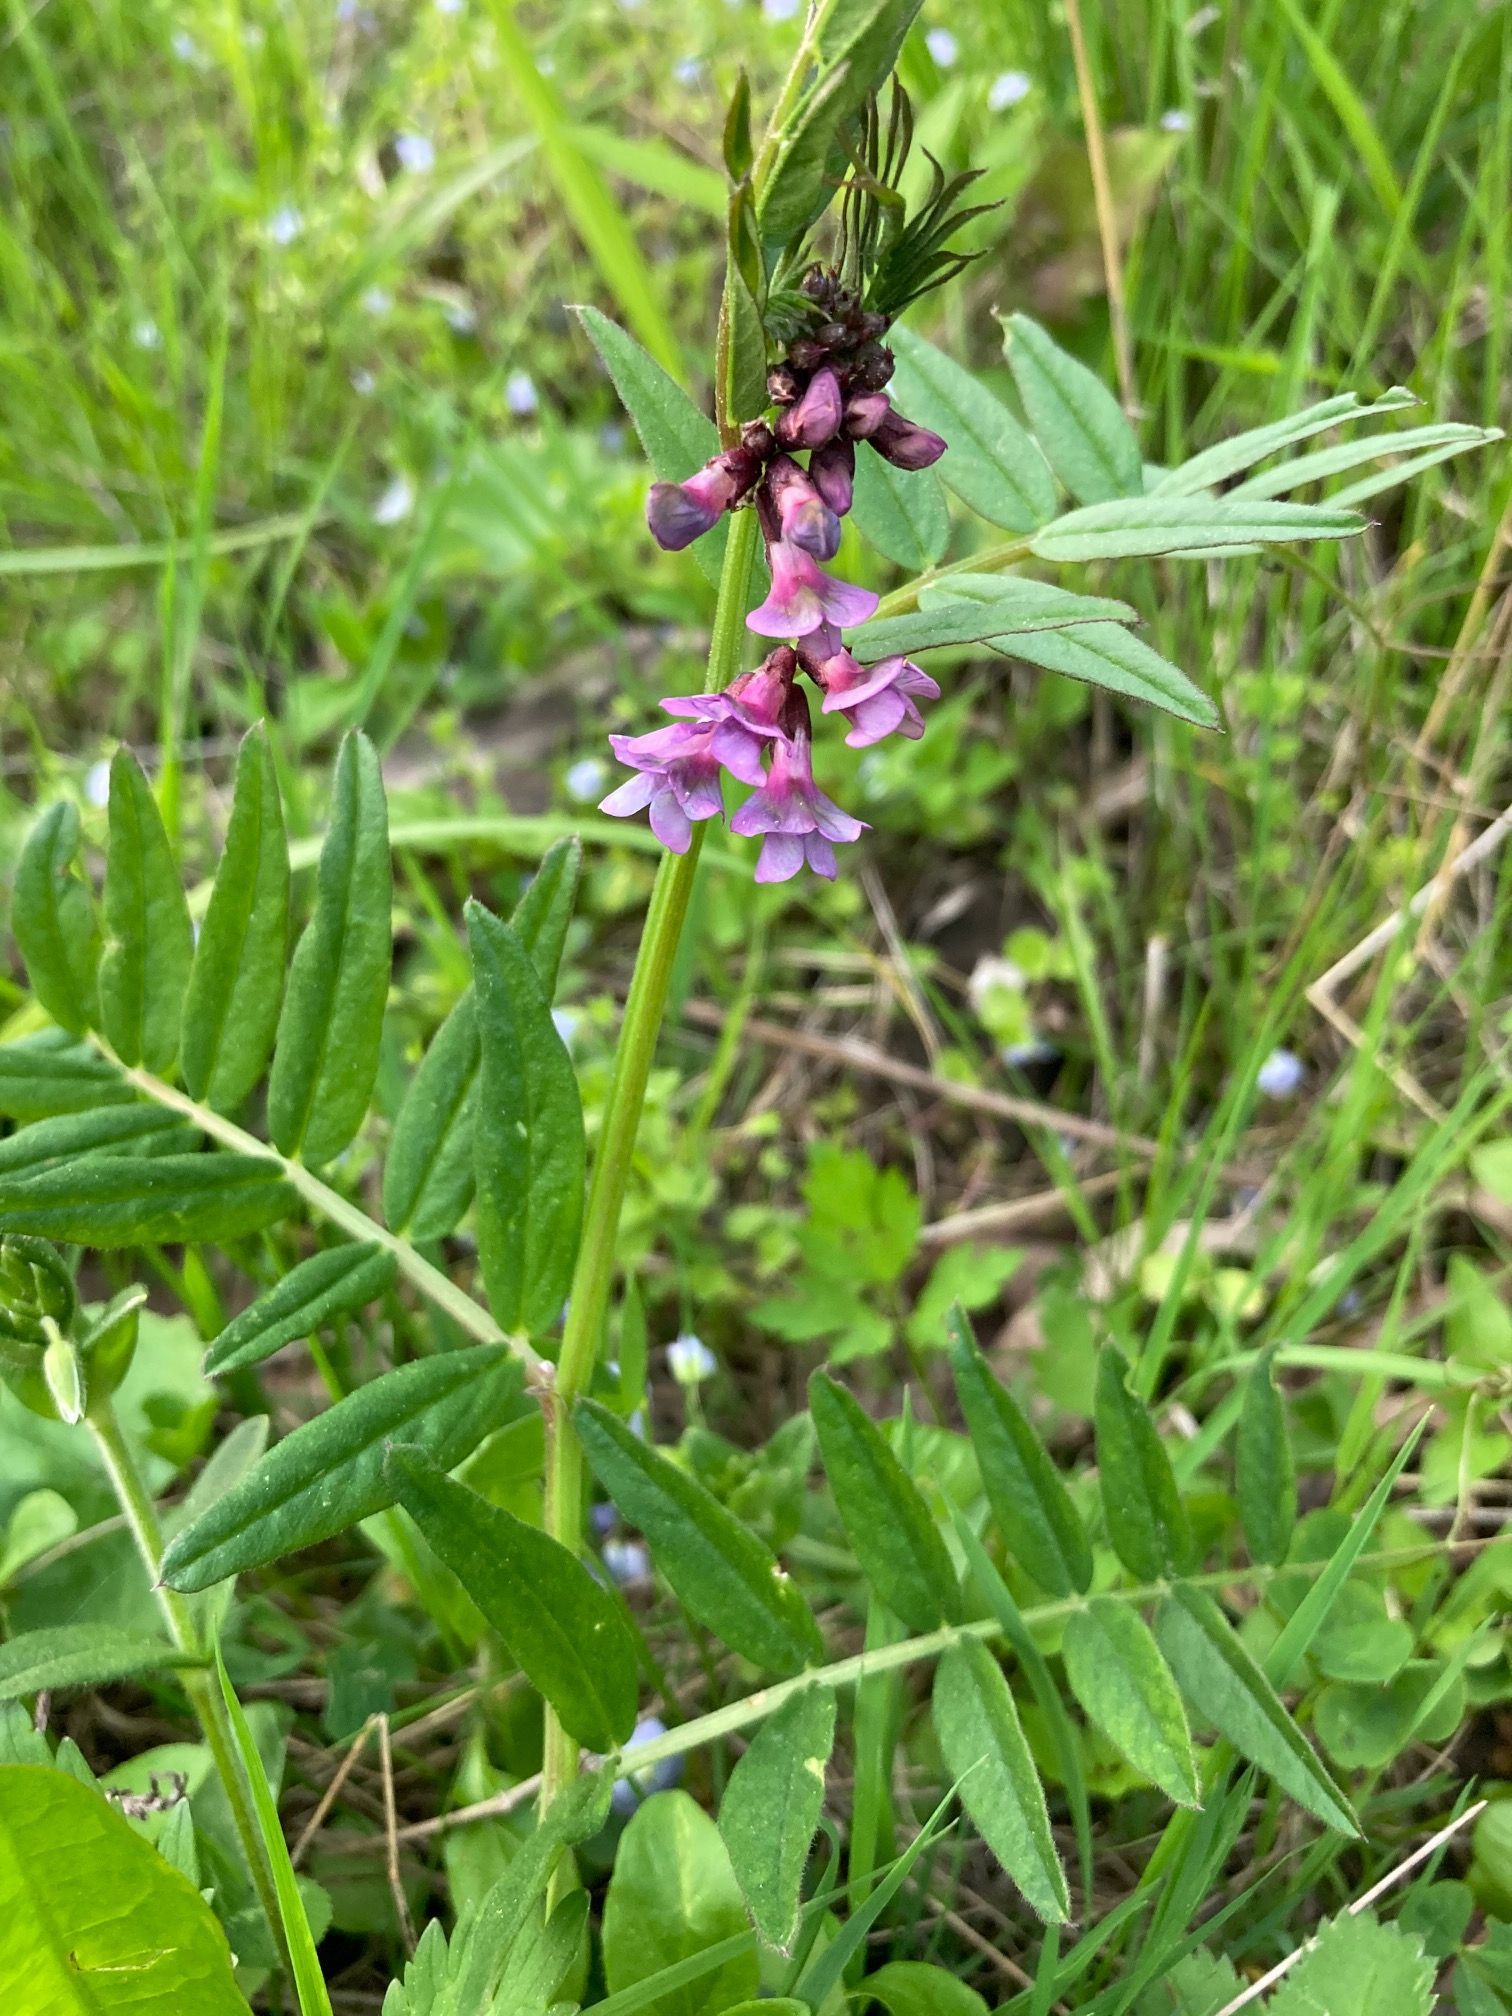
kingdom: Plantae
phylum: Tracheophyta
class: Magnoliopsida
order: Fabales
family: Fabaceae
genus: Vicia
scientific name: Vicia sepium
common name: Bush vetch
